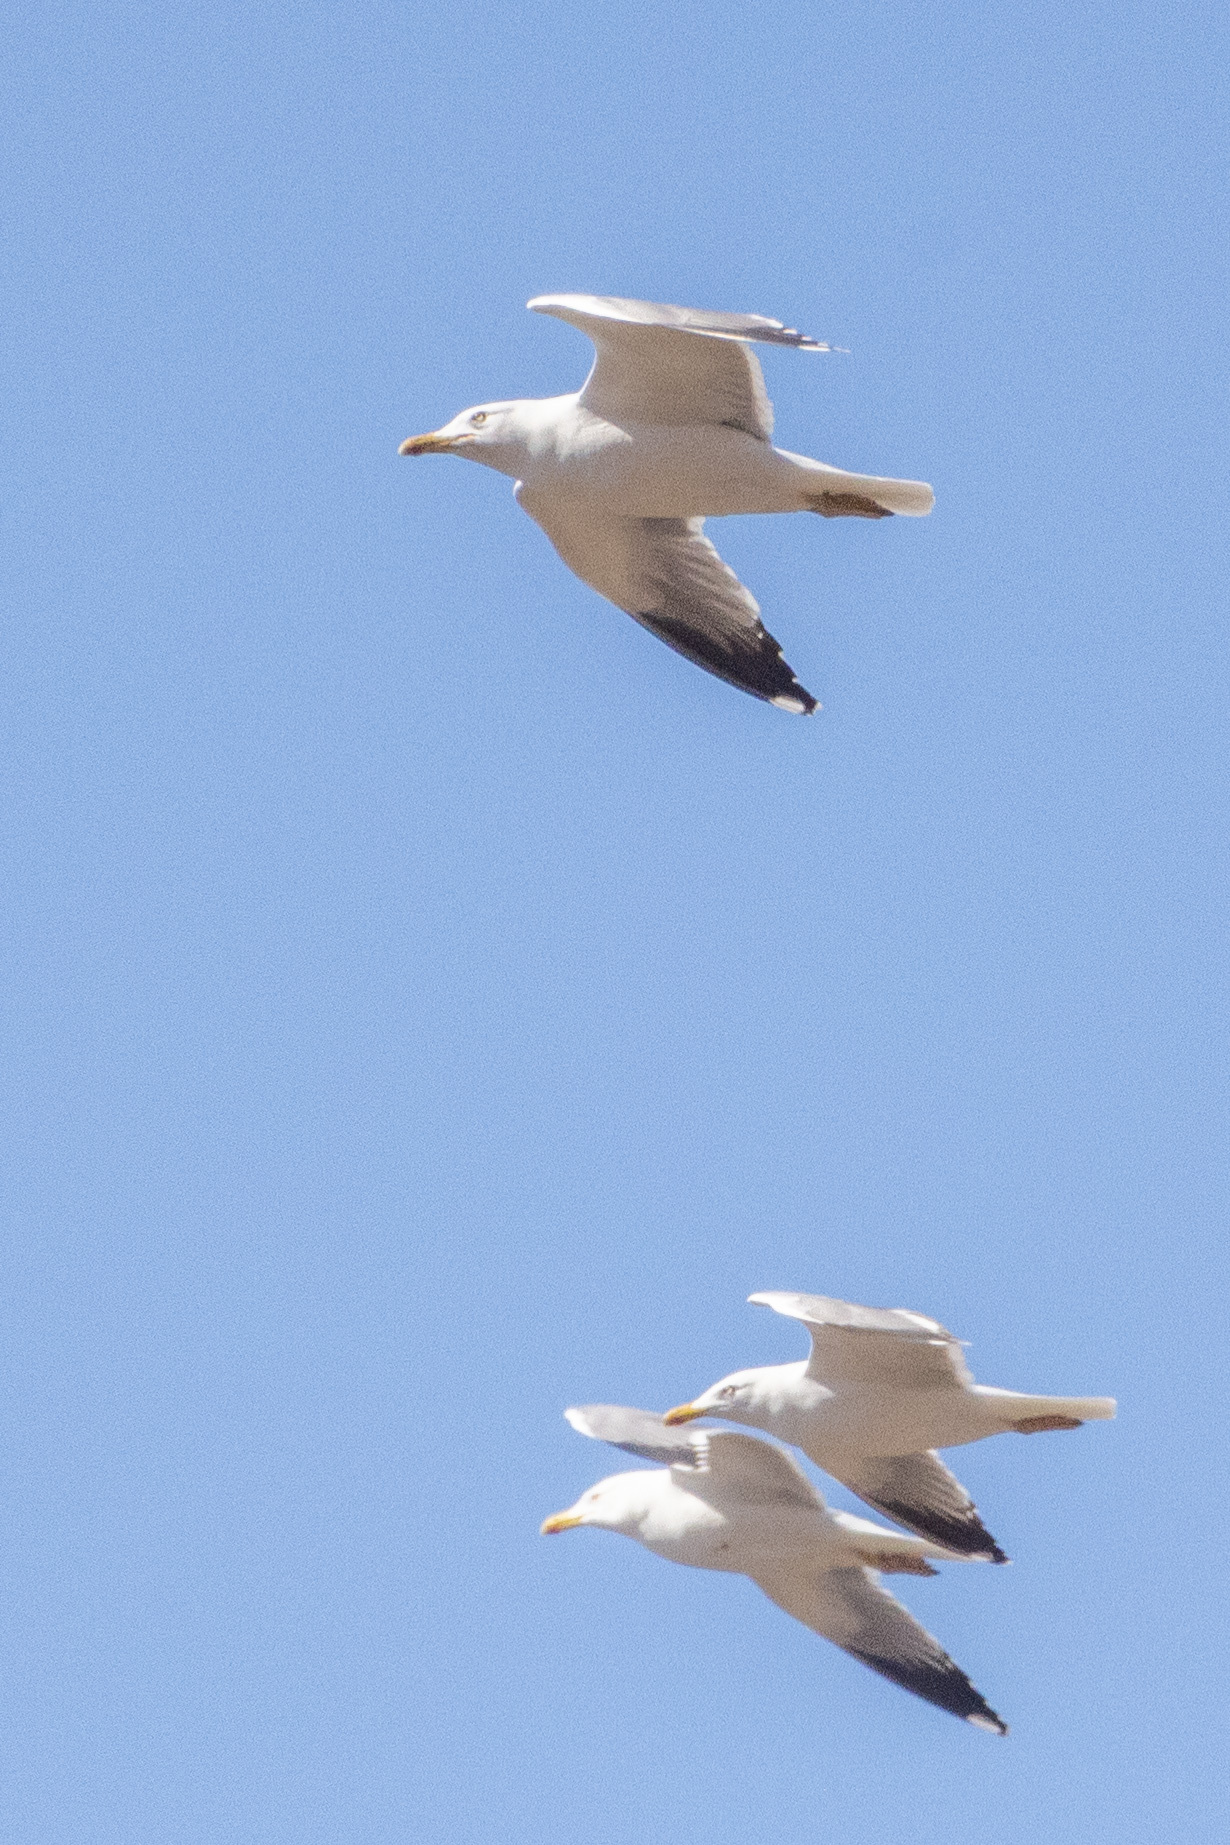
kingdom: Animalia
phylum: Chordata
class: Aves
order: Charadriiformes
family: Laridae
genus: Larus
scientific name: Larus michahellis
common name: Yellow-legged gull
